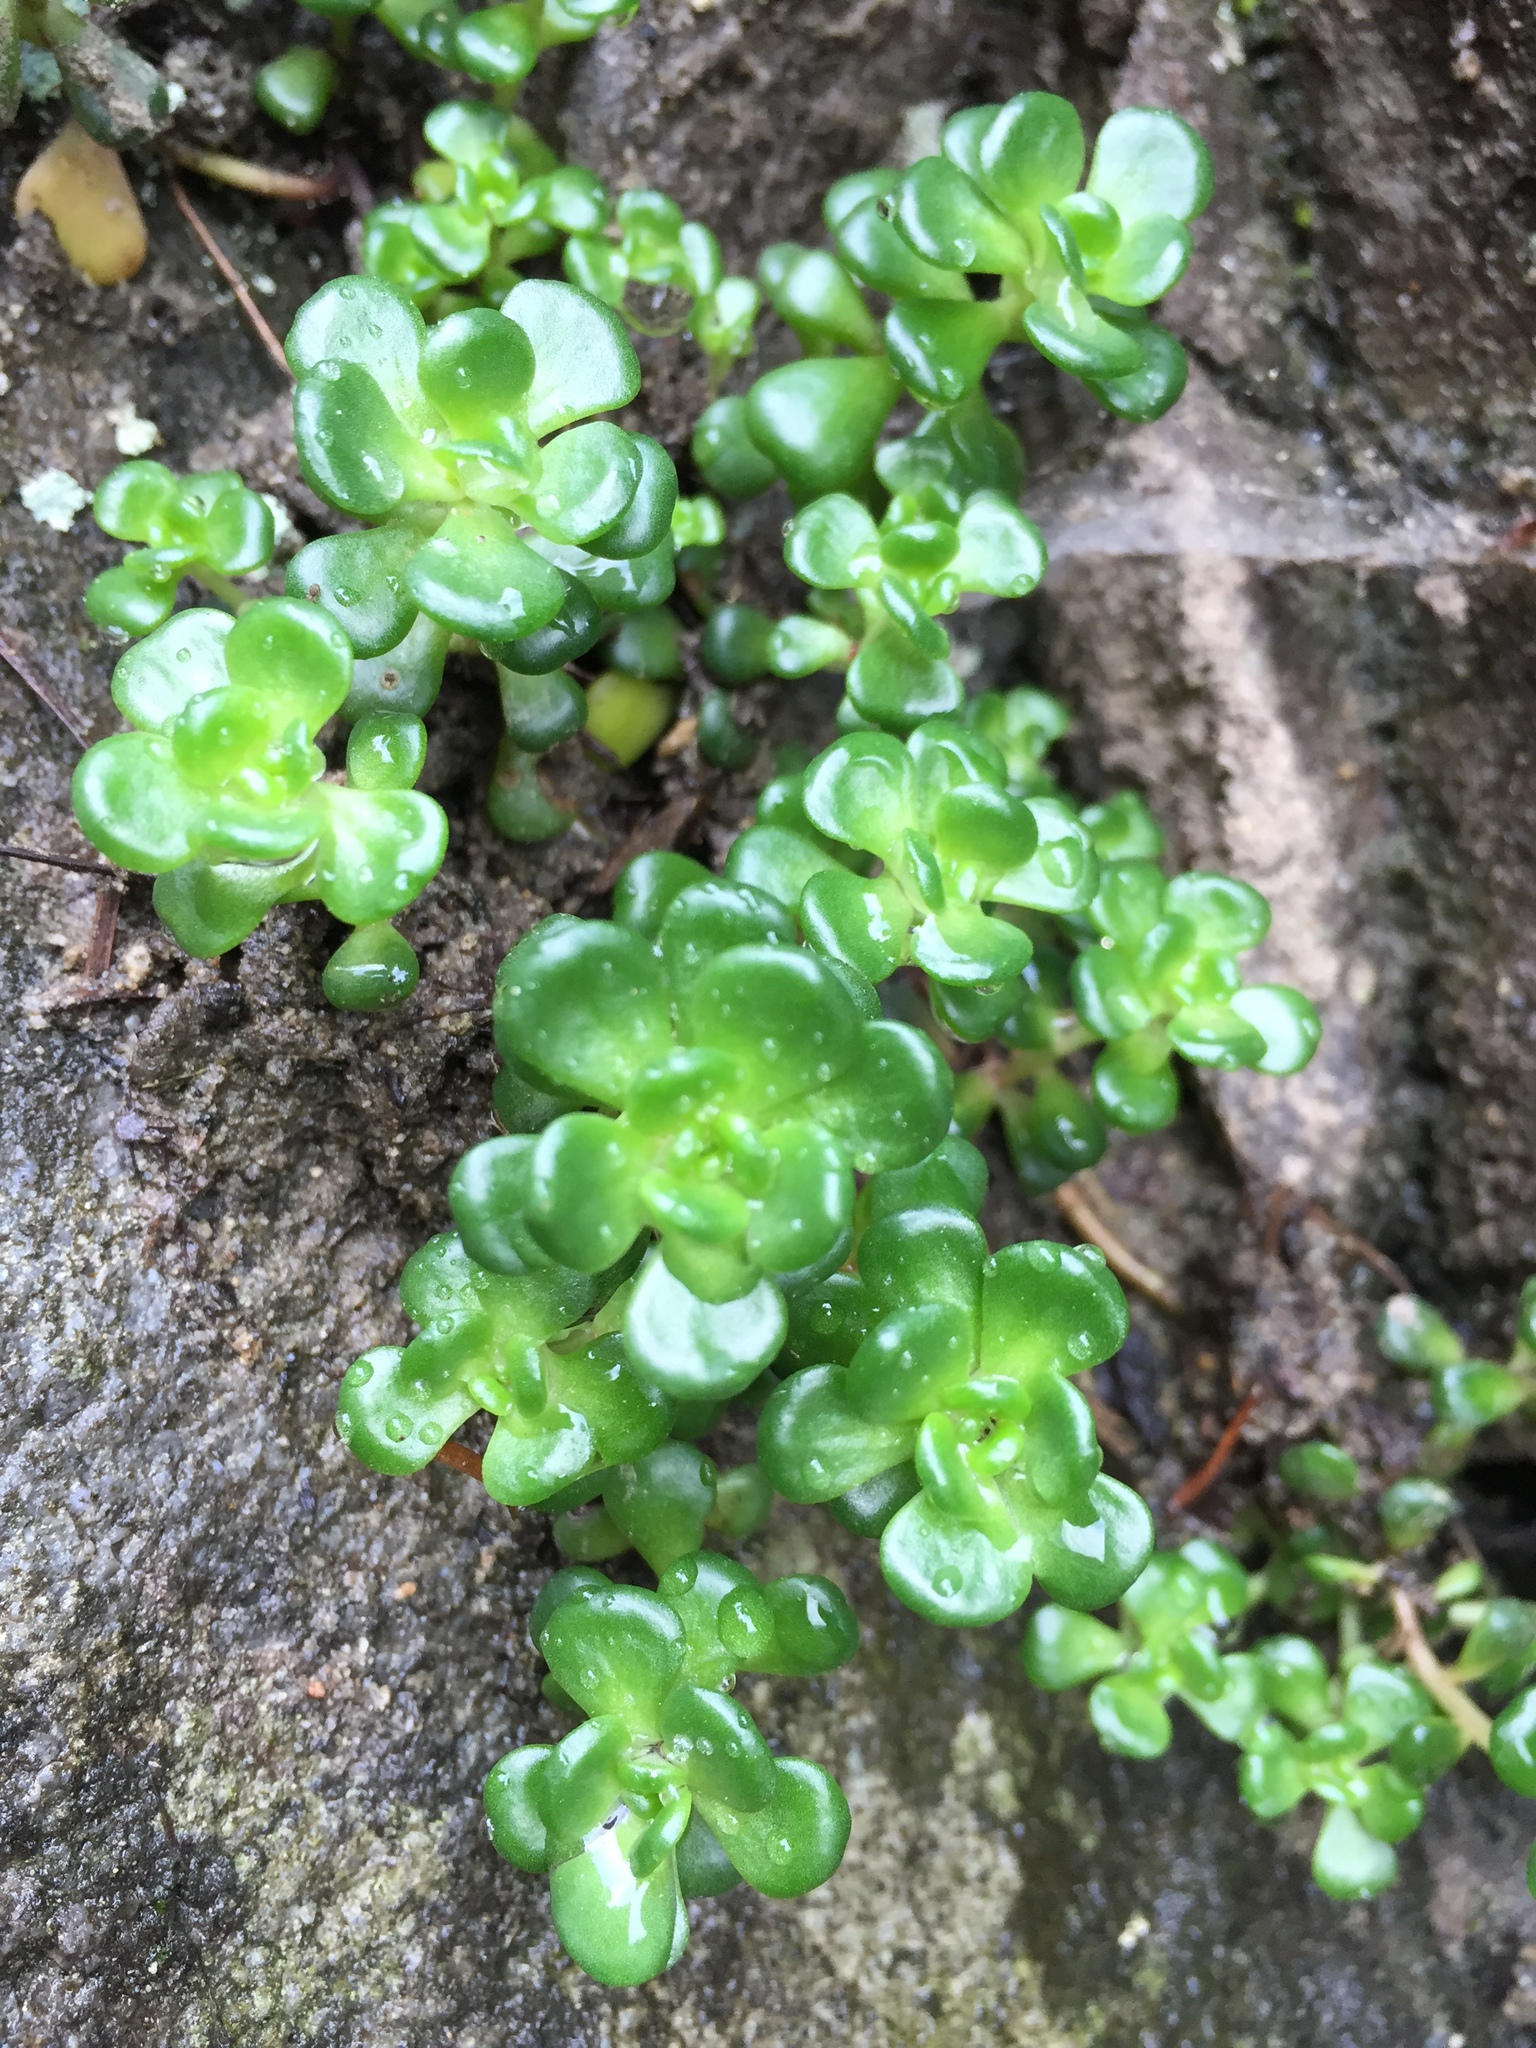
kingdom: Plantae
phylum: Tracheophyta
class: Magnoliopsida
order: Saxifragales
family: Crassulaceae
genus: Sedum
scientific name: Sedum oreganum
